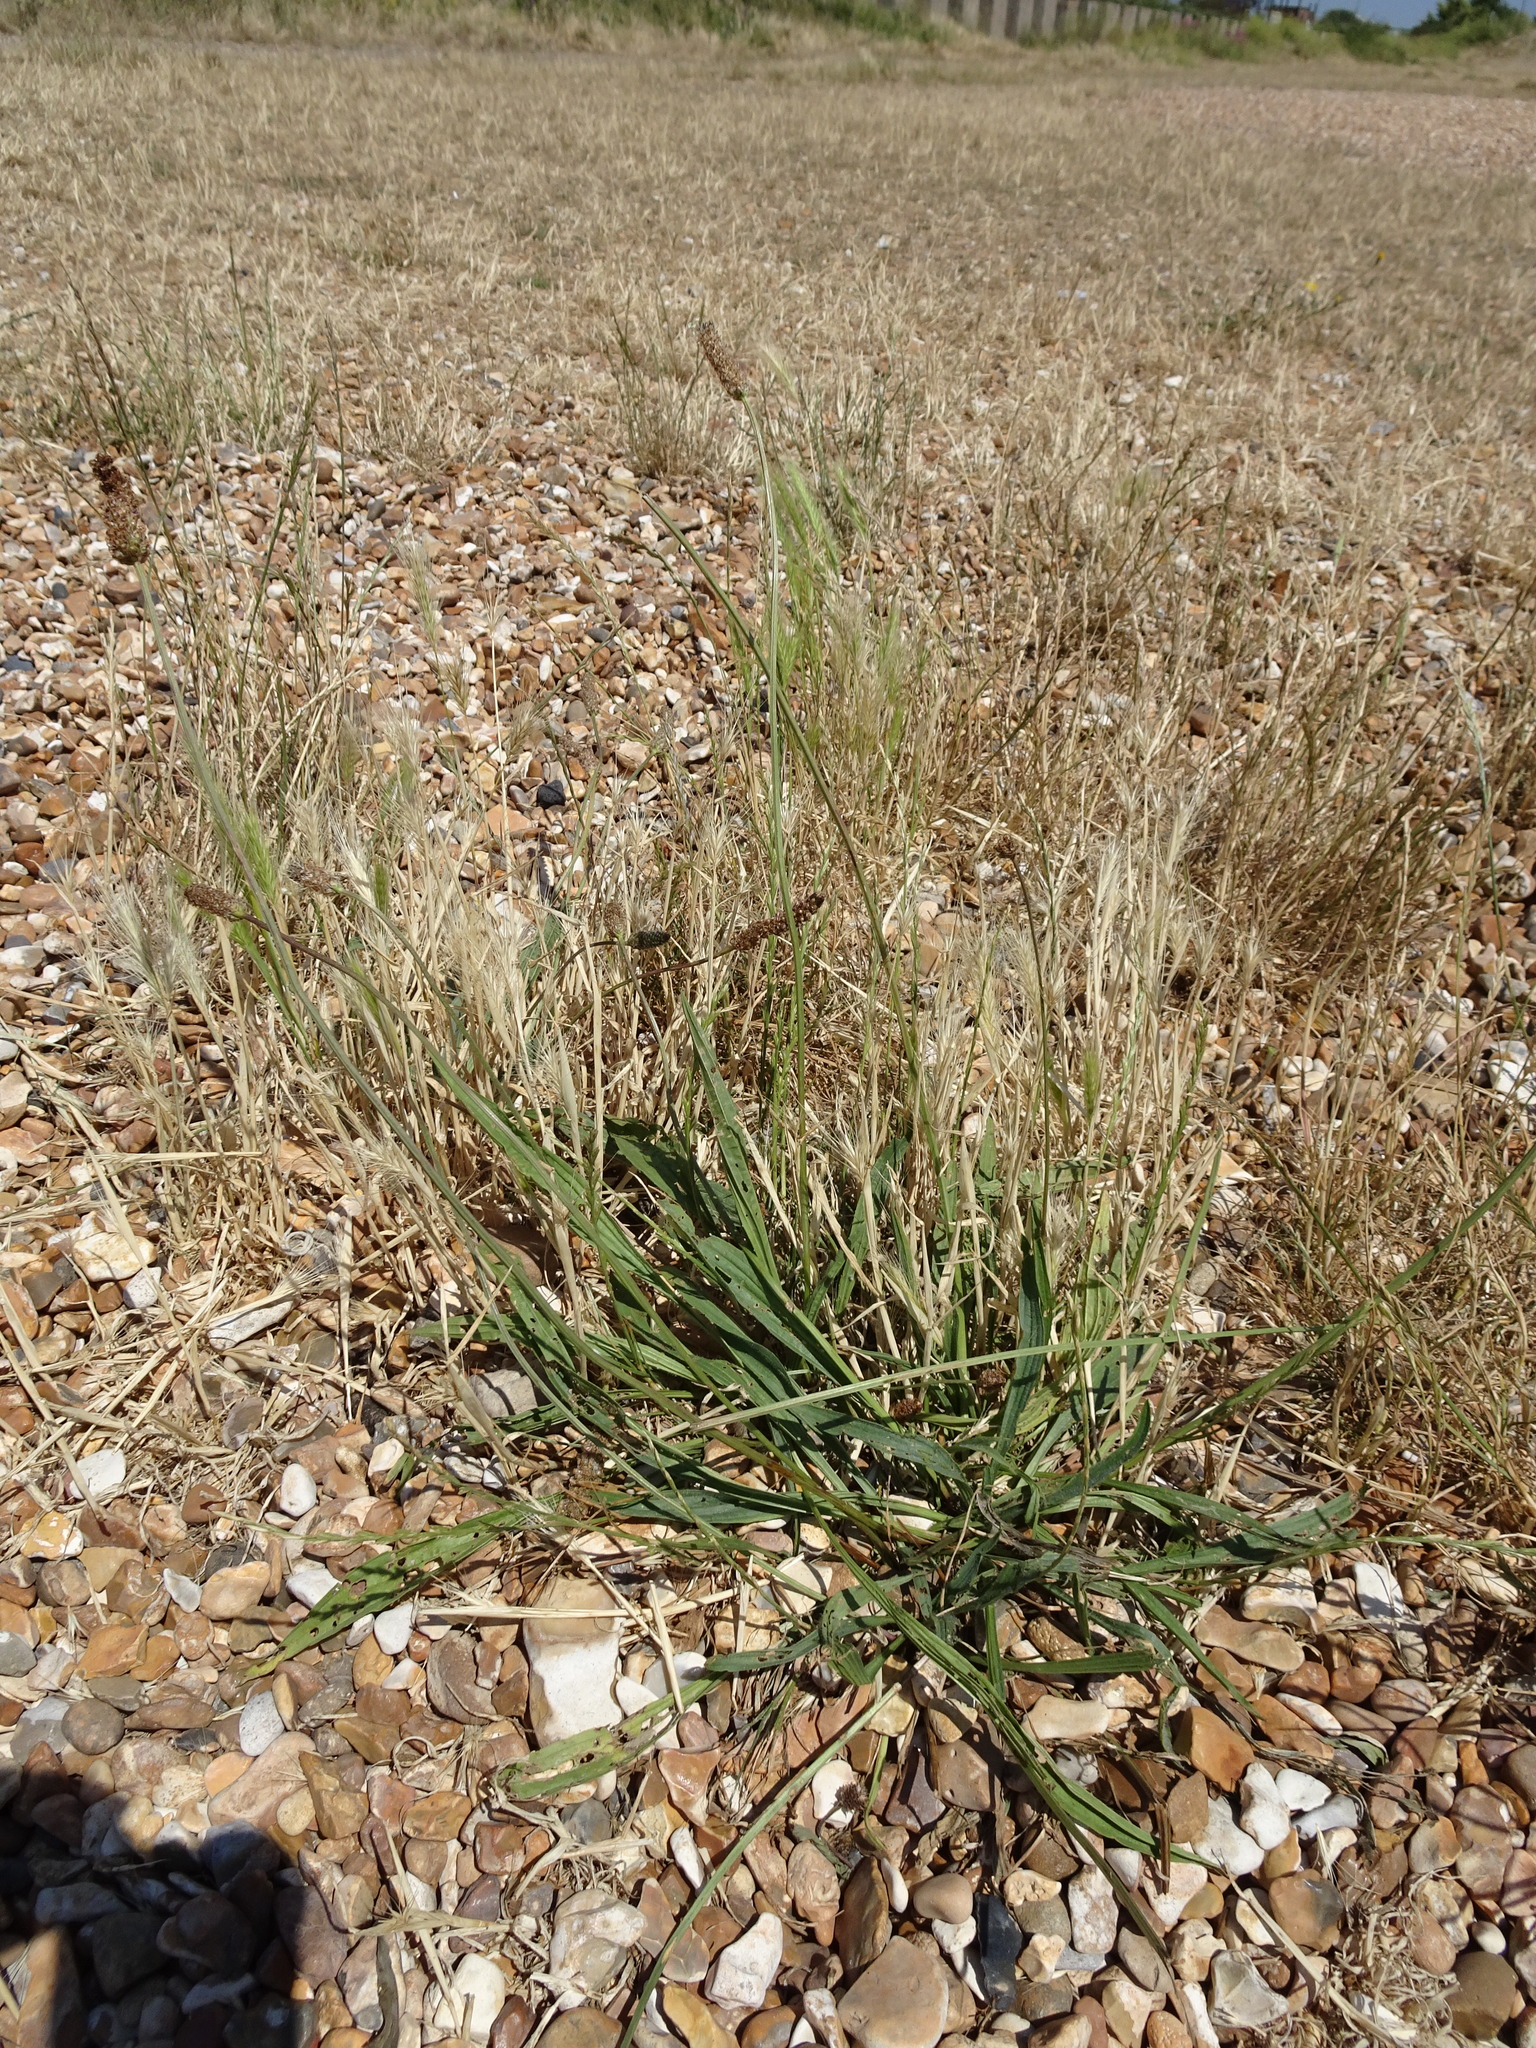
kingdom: Plantae
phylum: Tracheophyta
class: Magnoliopsida
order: Lamiales
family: Plantaginaceae
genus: Plantago
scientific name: Plantago lanceolata
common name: Ribwort plantain
